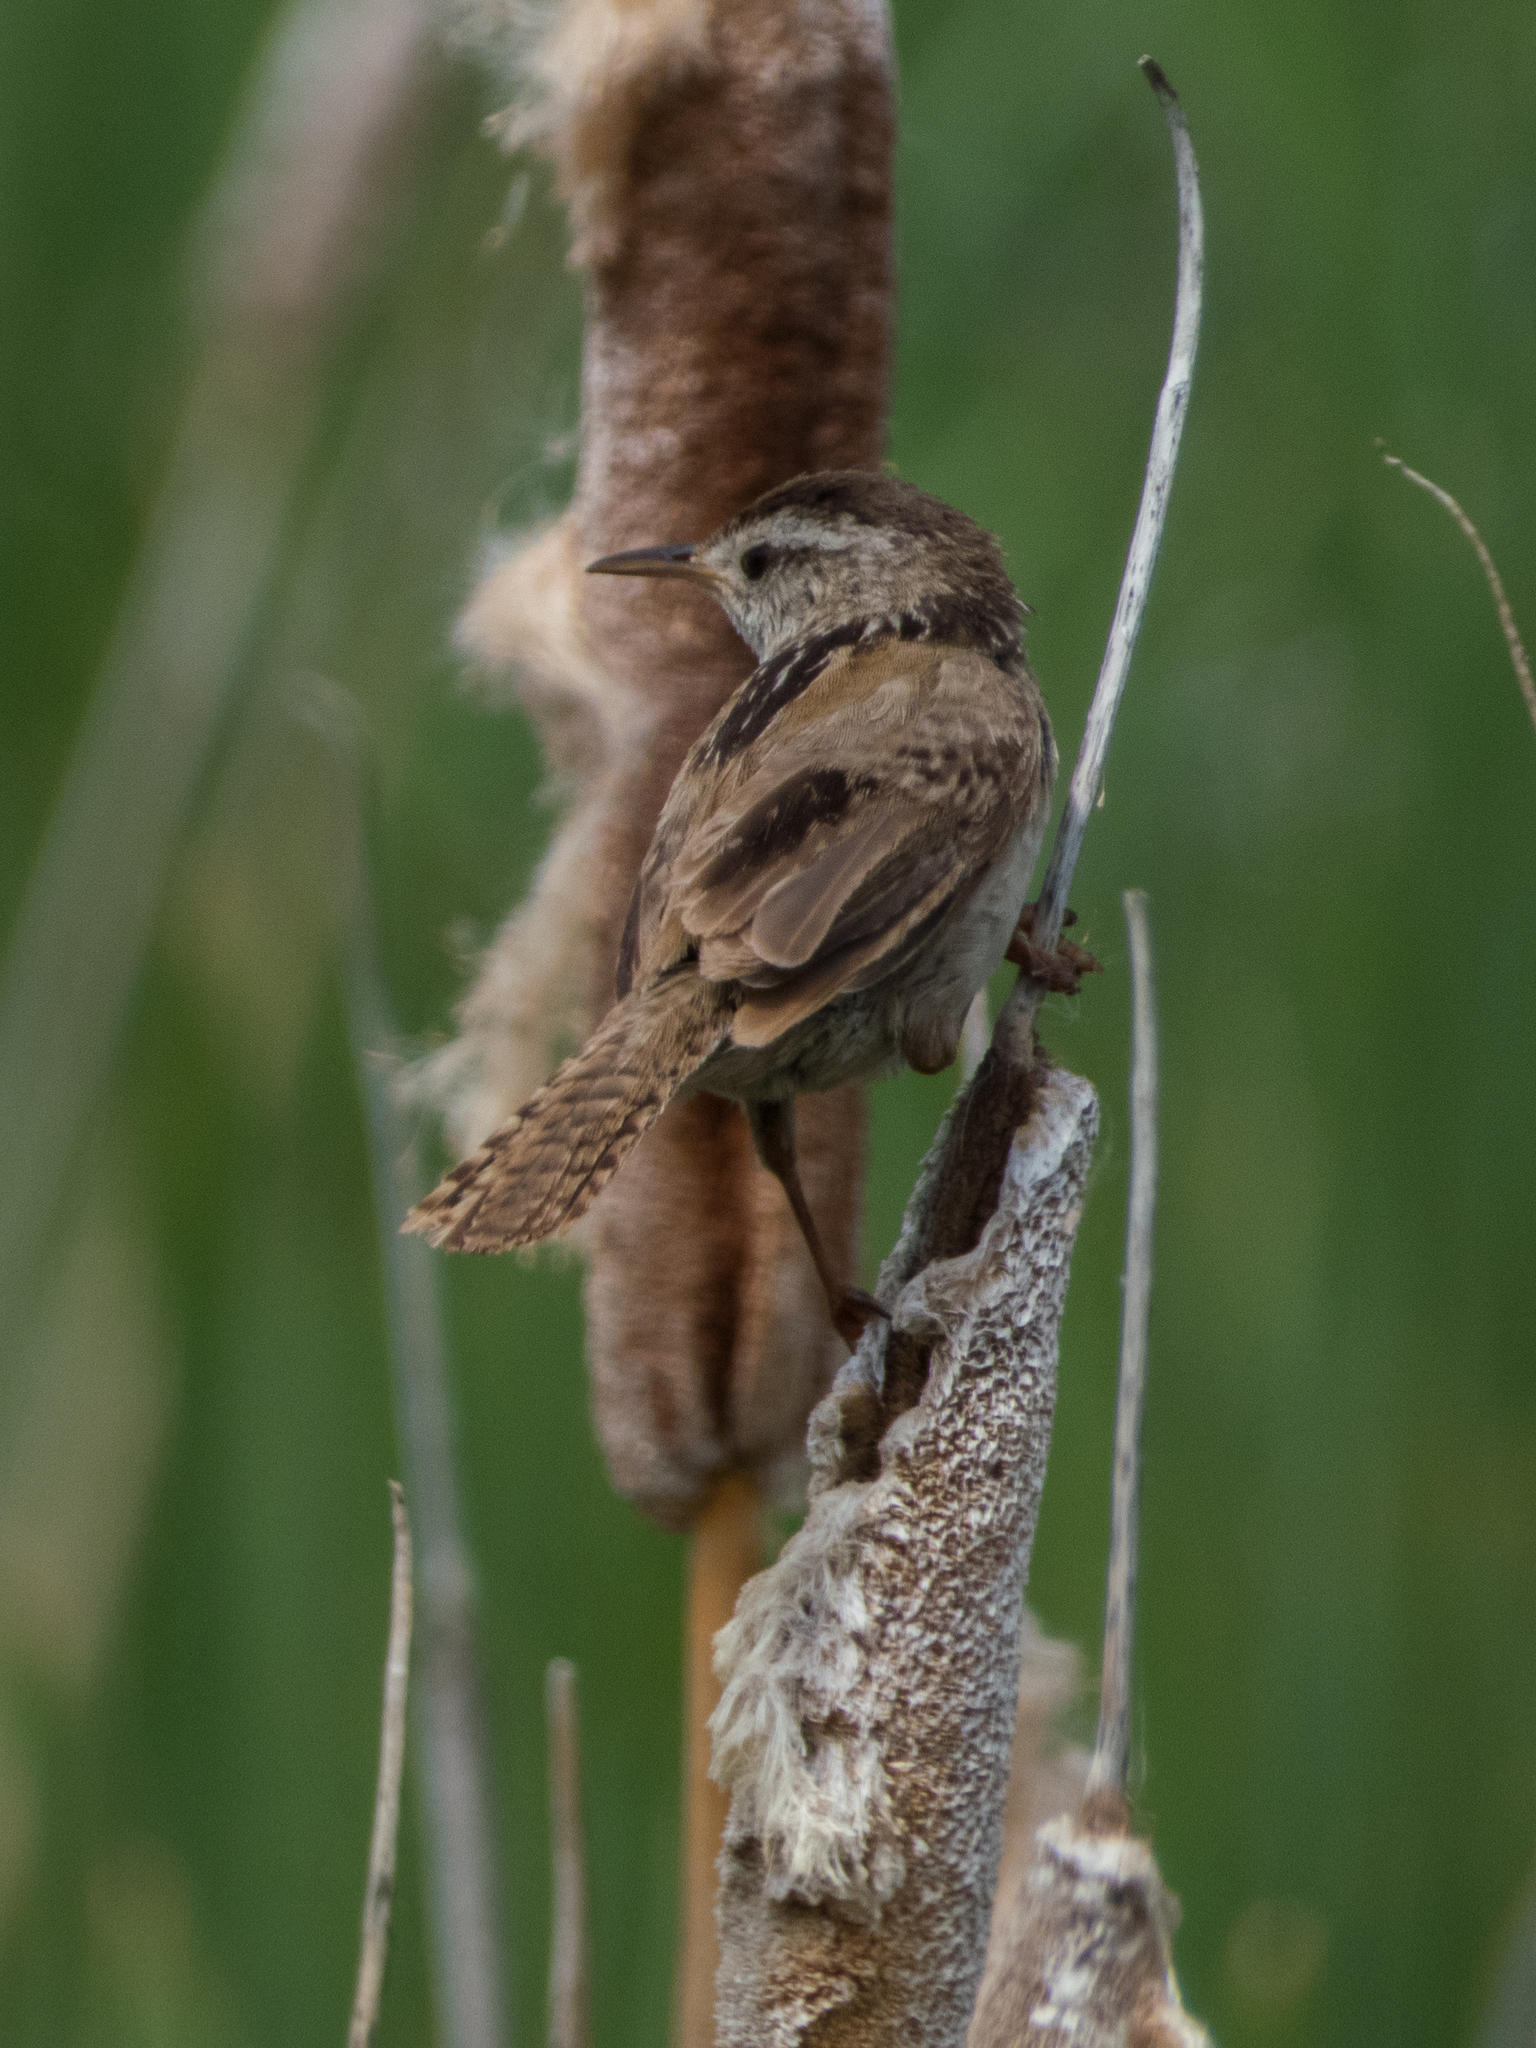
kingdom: Animalia
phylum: Chordata
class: Aves
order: Passeriformes
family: Troglodytidae
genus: Cistothorus
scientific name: Cistothorus palustris
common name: Marsh wren
